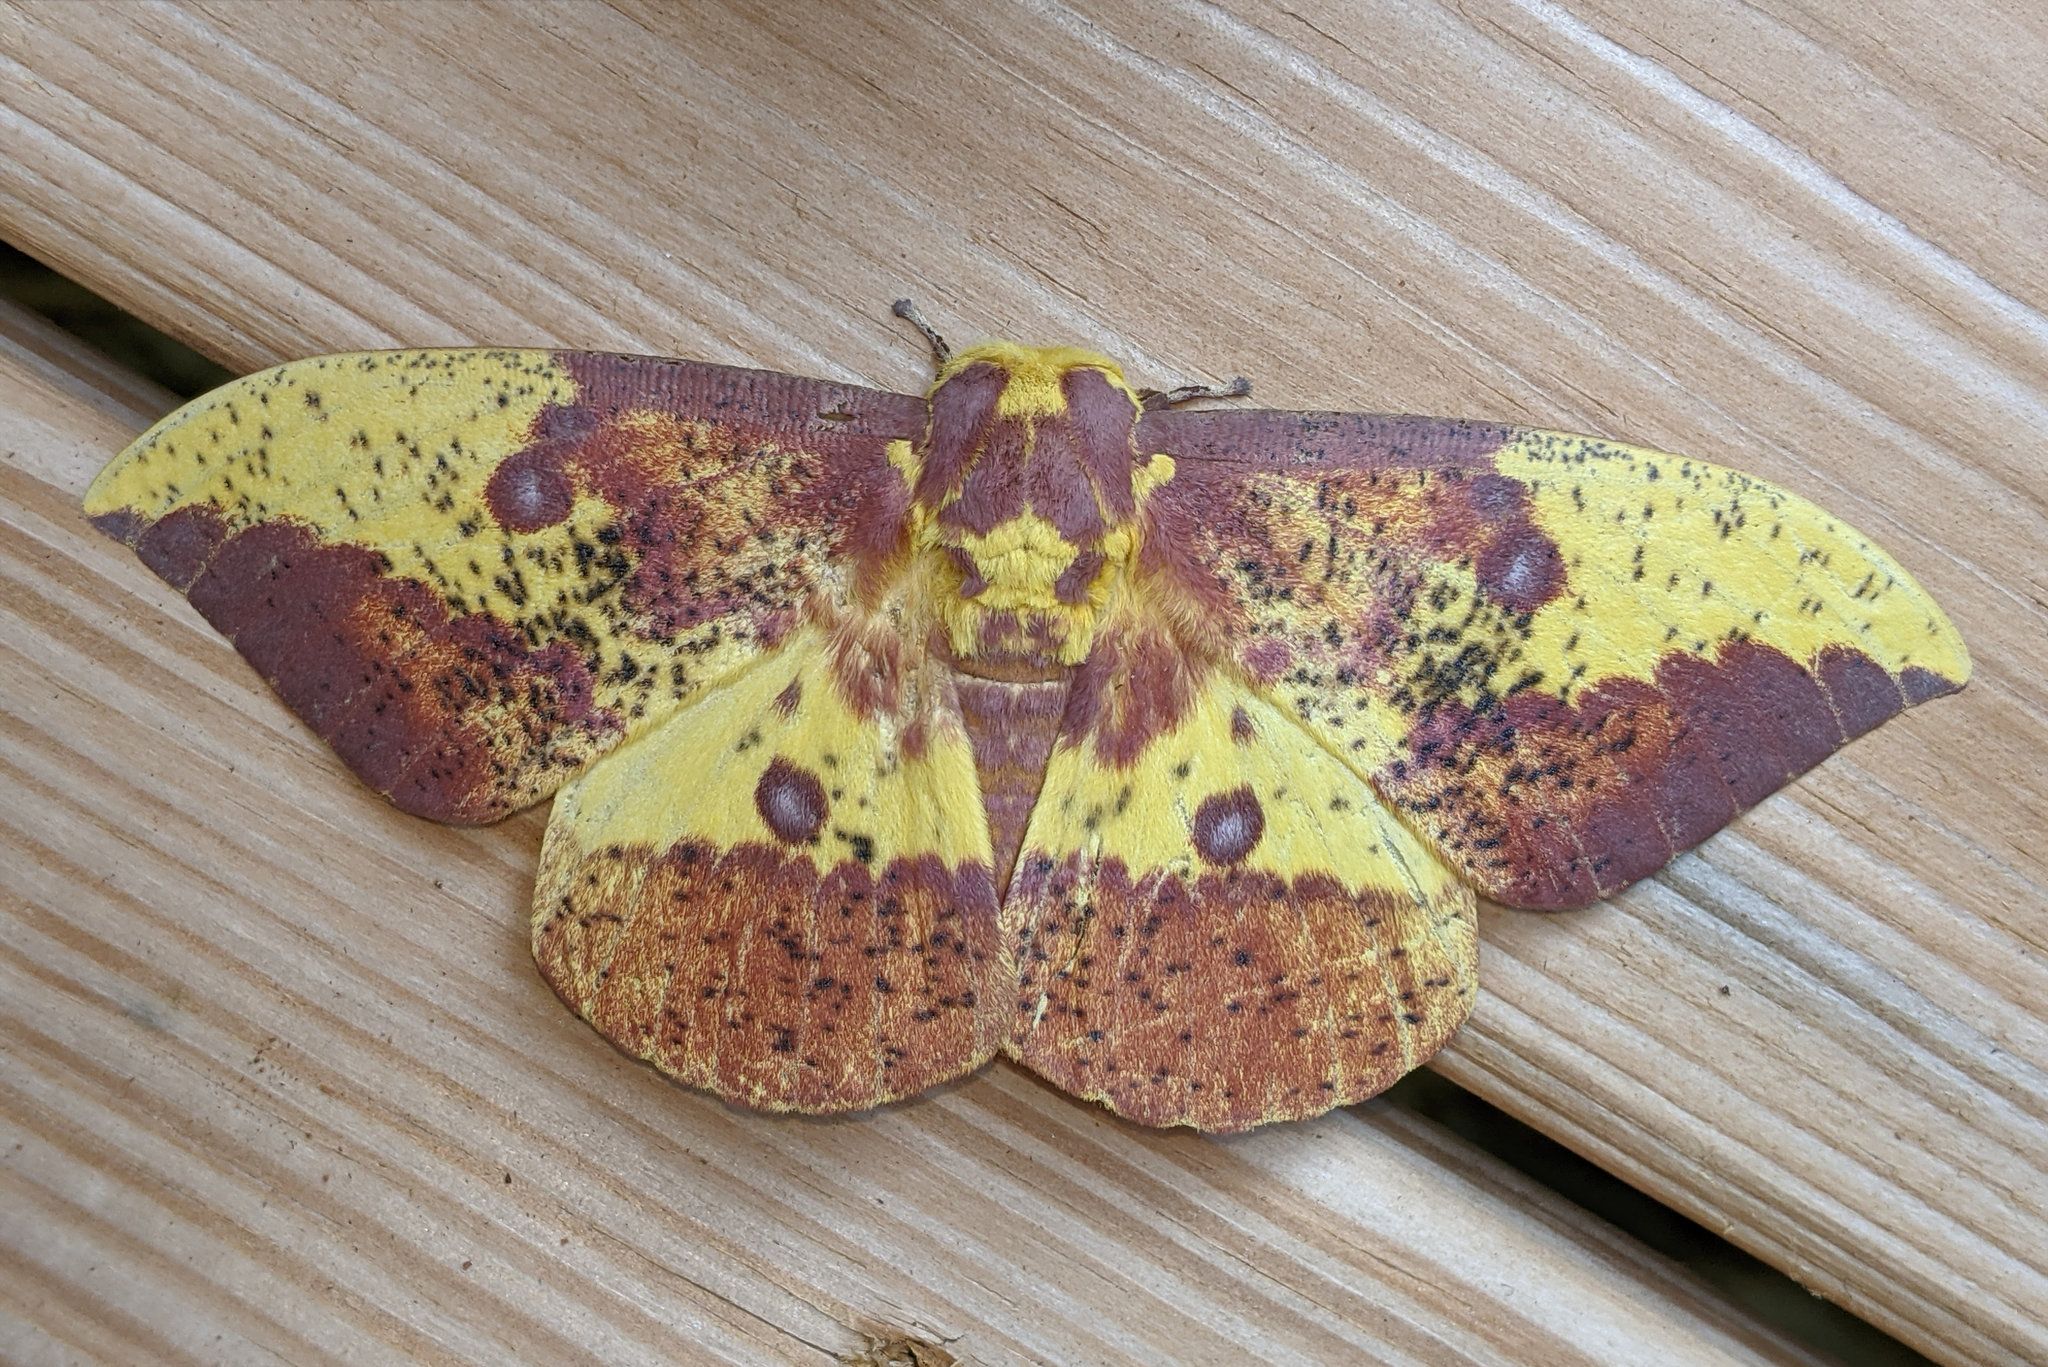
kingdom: Animalia
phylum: Arthropoda
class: Insecta
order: Lepidoptera
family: Saturniidae
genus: Eacles
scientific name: Eacles imperialis
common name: Imperial moth
